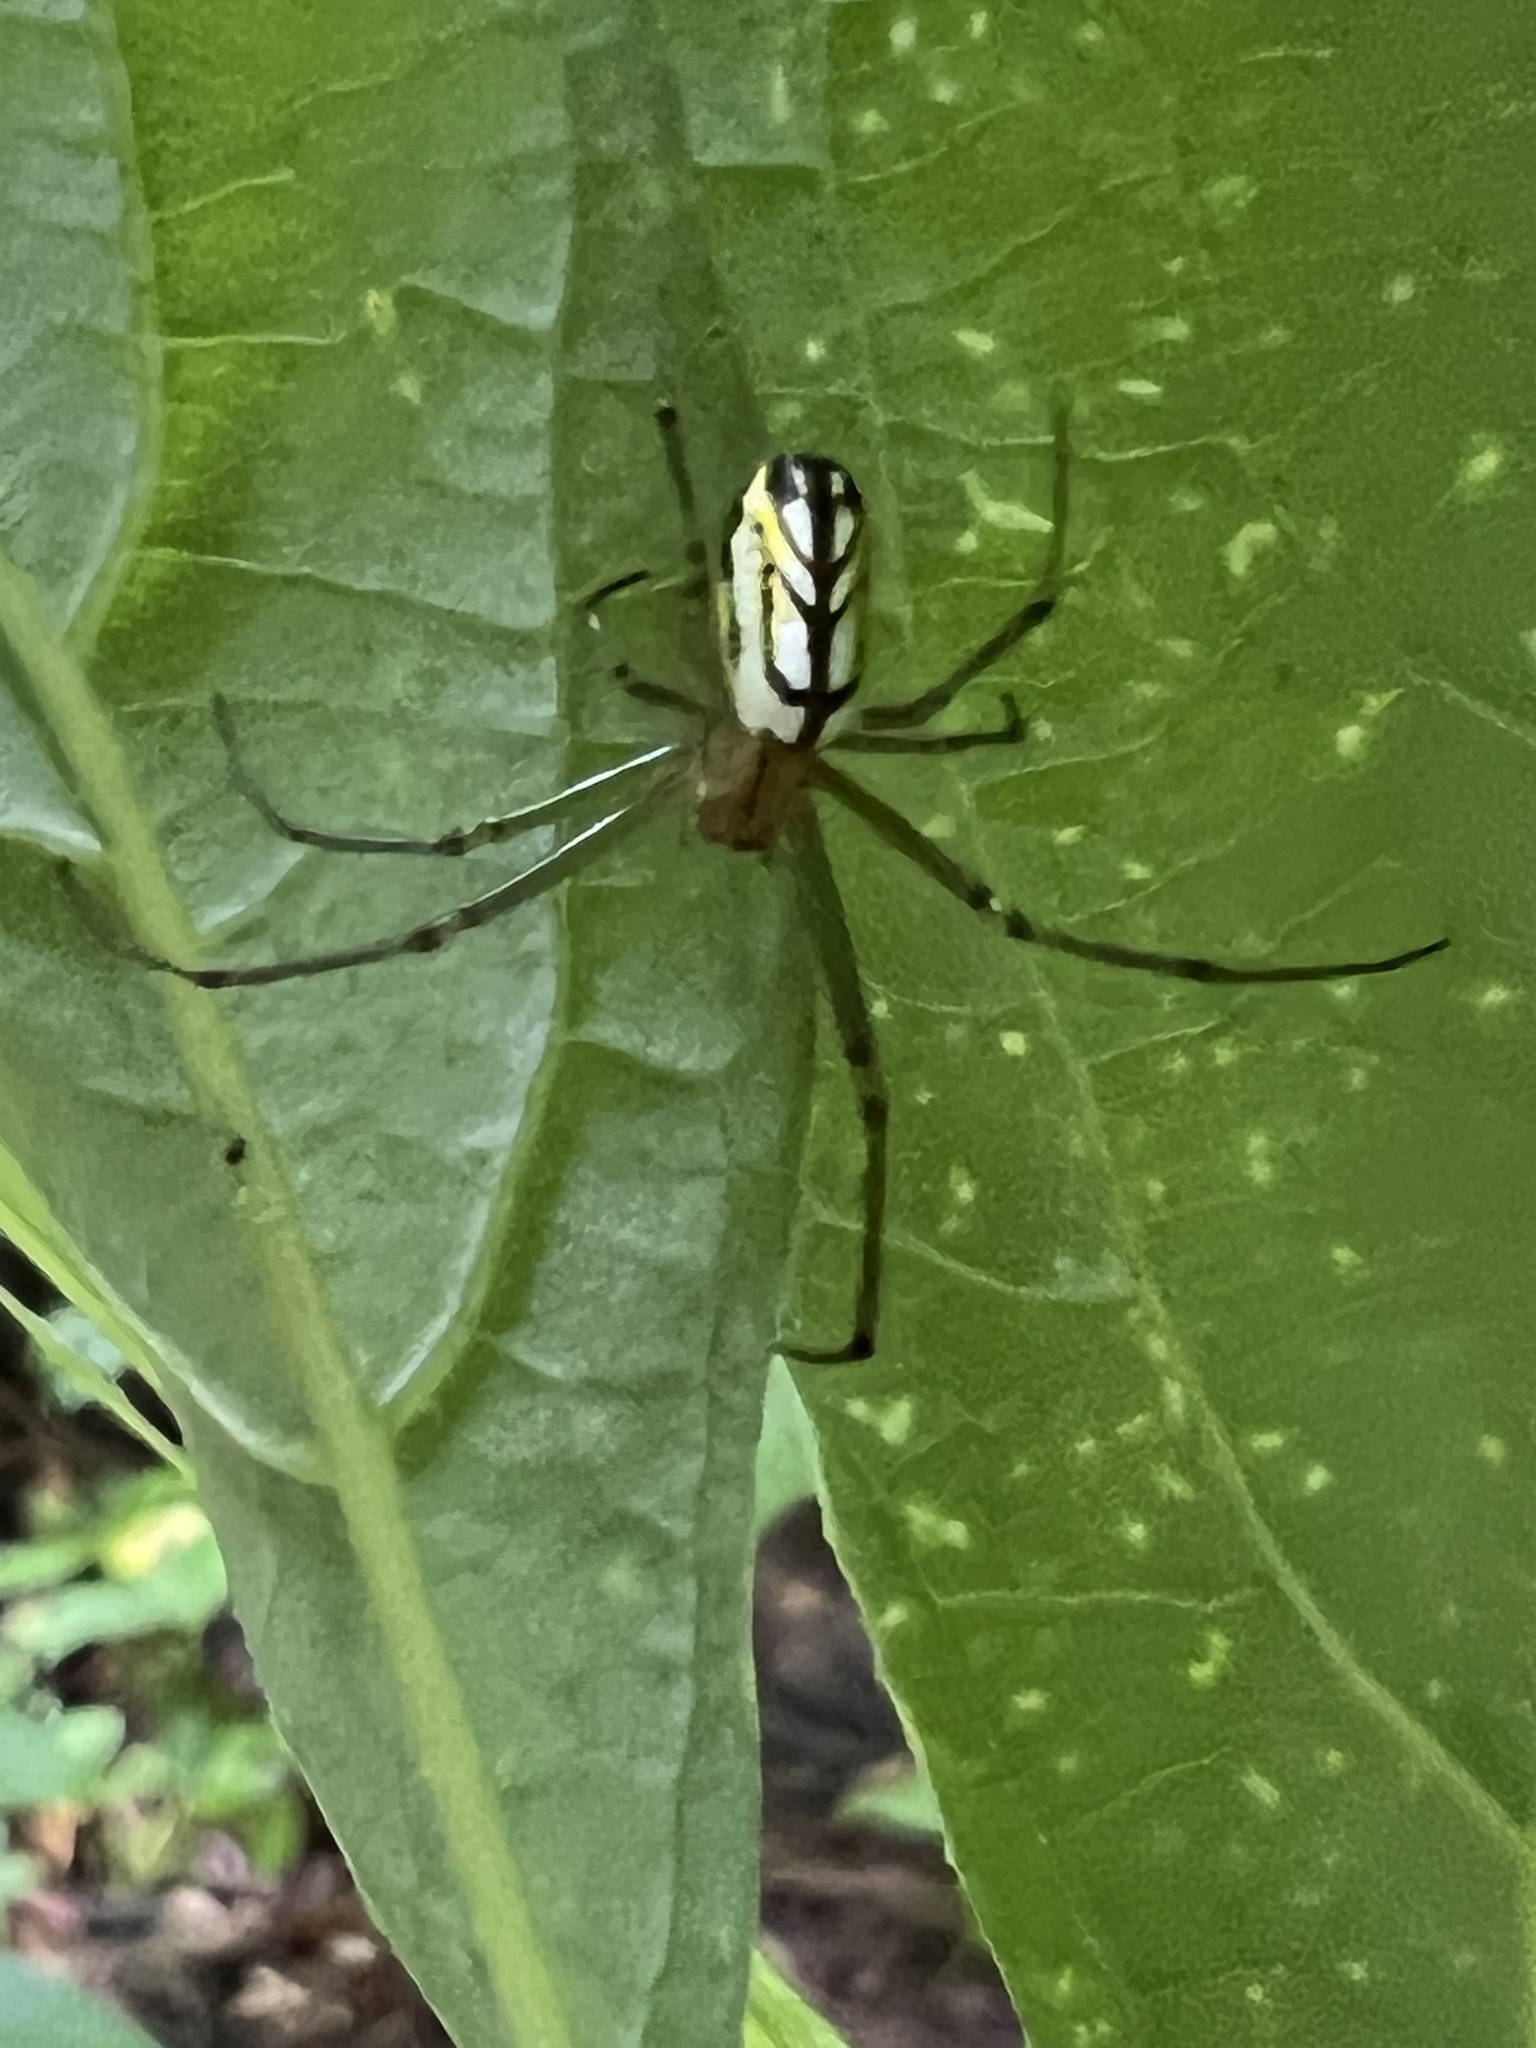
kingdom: Animalia
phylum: Arthropoda
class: Arachnida
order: Araneae
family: Tetragnathidae
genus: Leucauge
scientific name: Leucauge venusta
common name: Longjawed orb weavers
